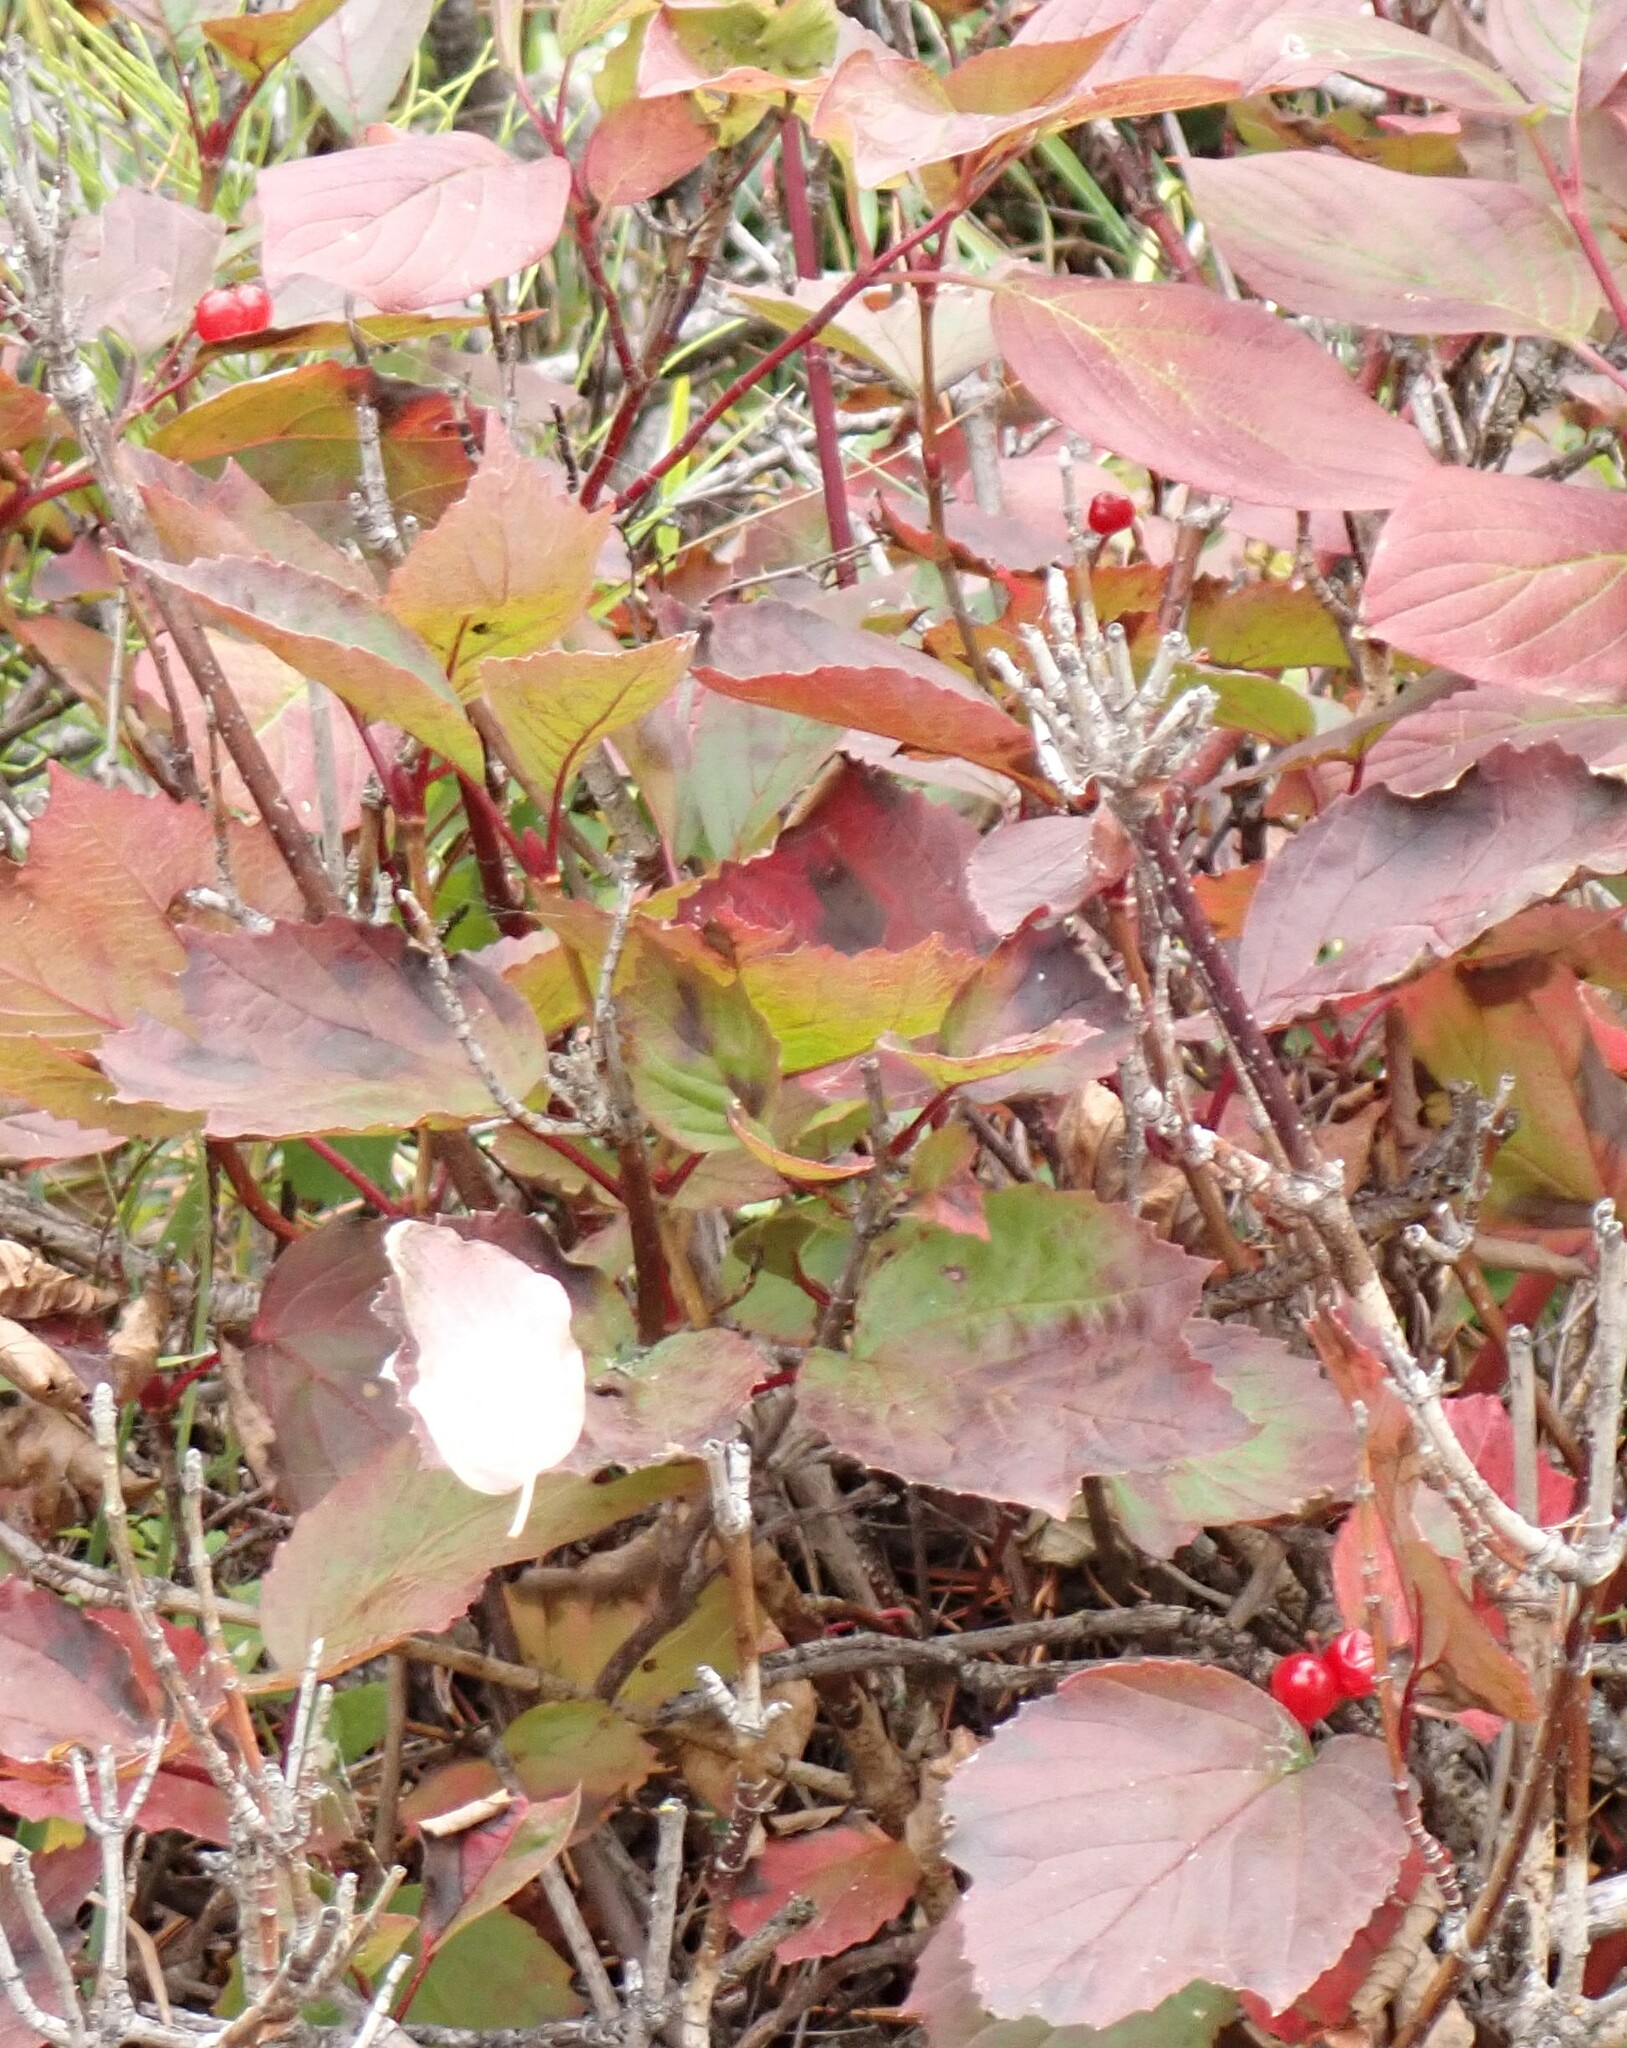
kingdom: Plantae
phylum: Tracheophyta
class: Magnoliopsida
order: Dipsacales
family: Viburnaceae
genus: Viburnum
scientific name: Viburnum edule
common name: Mooseberry
